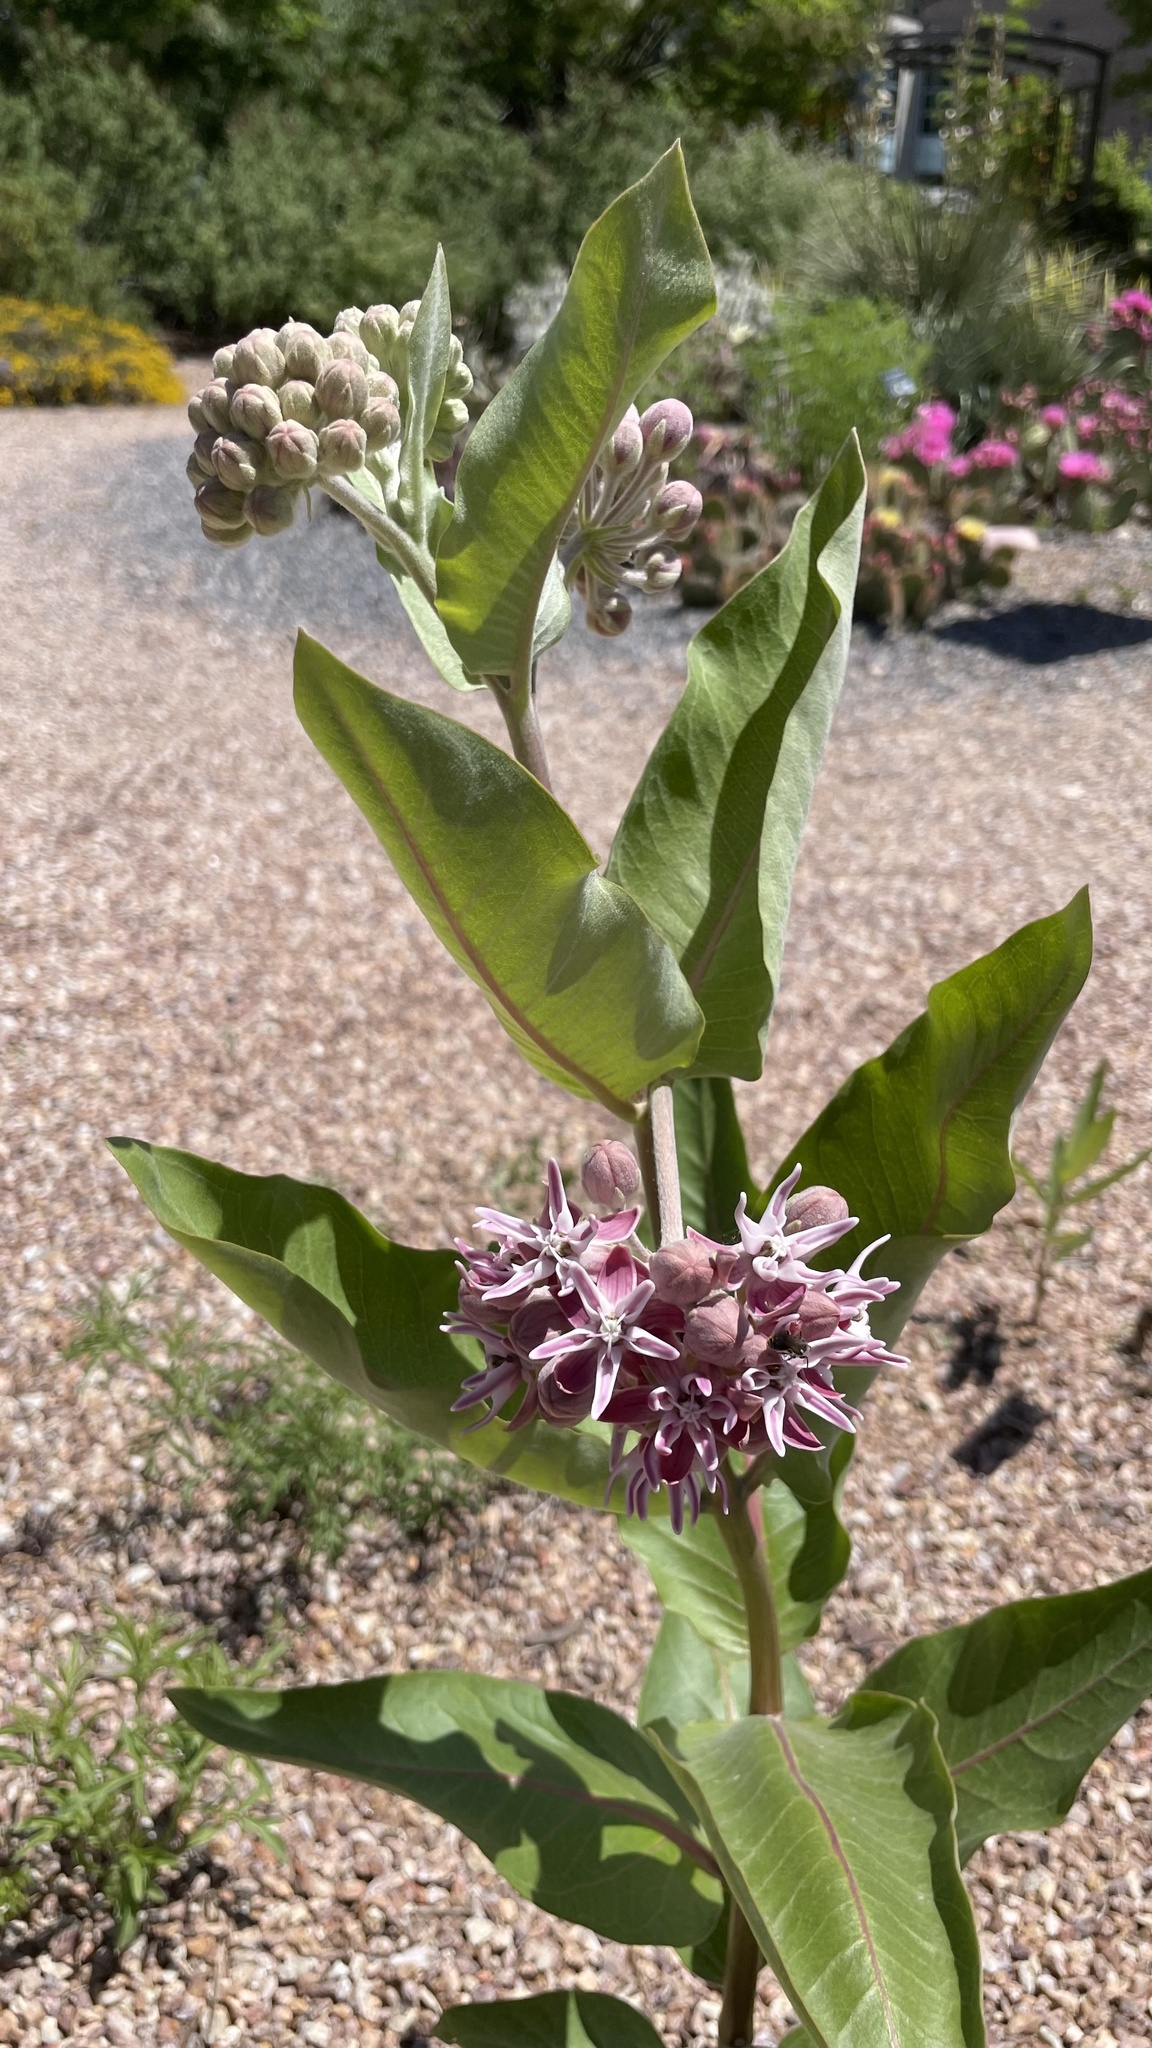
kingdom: Plantae
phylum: Tracheophyta
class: Magnoliopsida
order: Gentianales
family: Apocynaceae
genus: Asclepias
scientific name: Asclepias speciosa
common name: Showy milkweed
